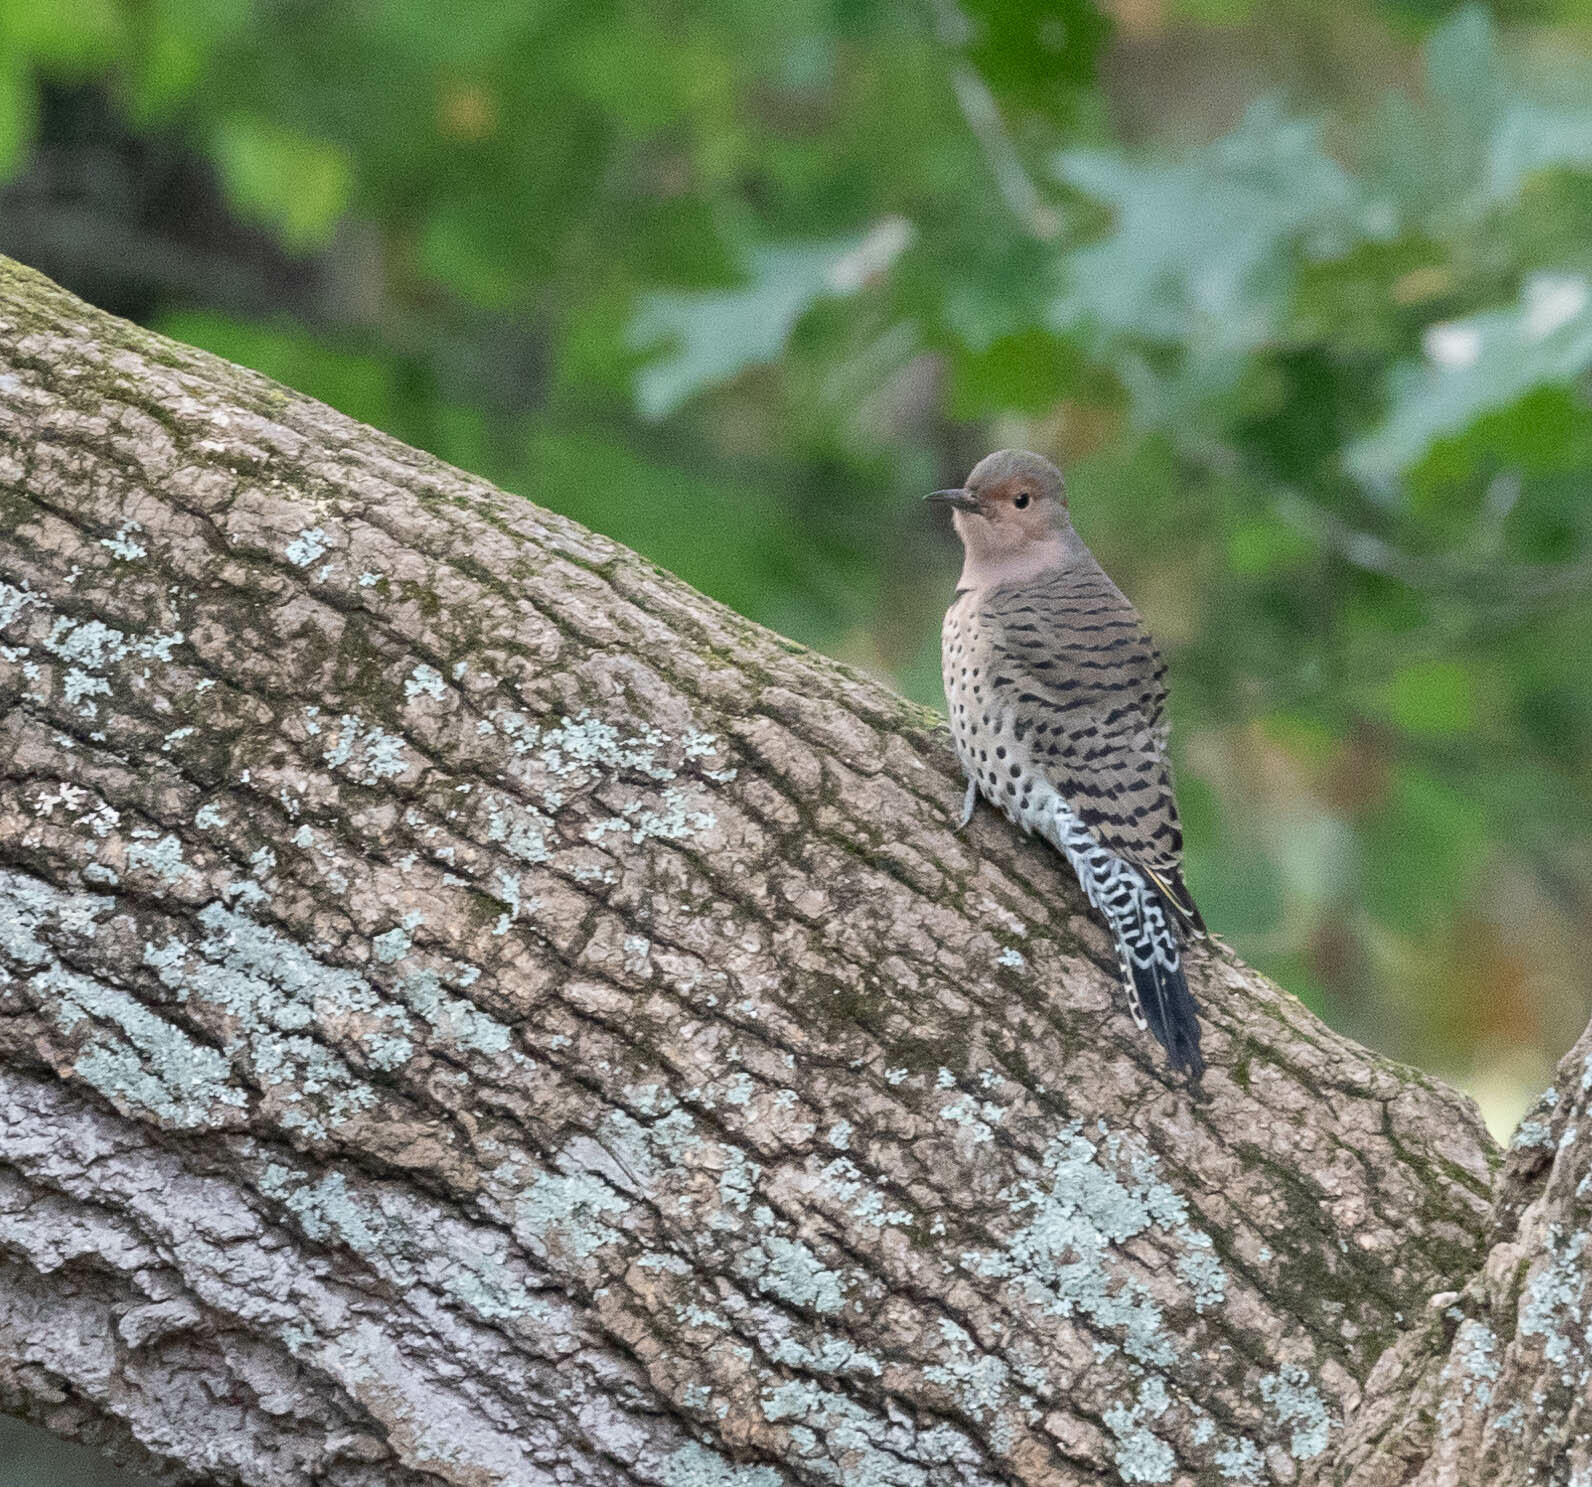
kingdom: Animalia
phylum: Chordata
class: Aves
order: Piciformes
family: Picidae
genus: Colaptes
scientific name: Colaptes auratus
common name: Northern flicker
